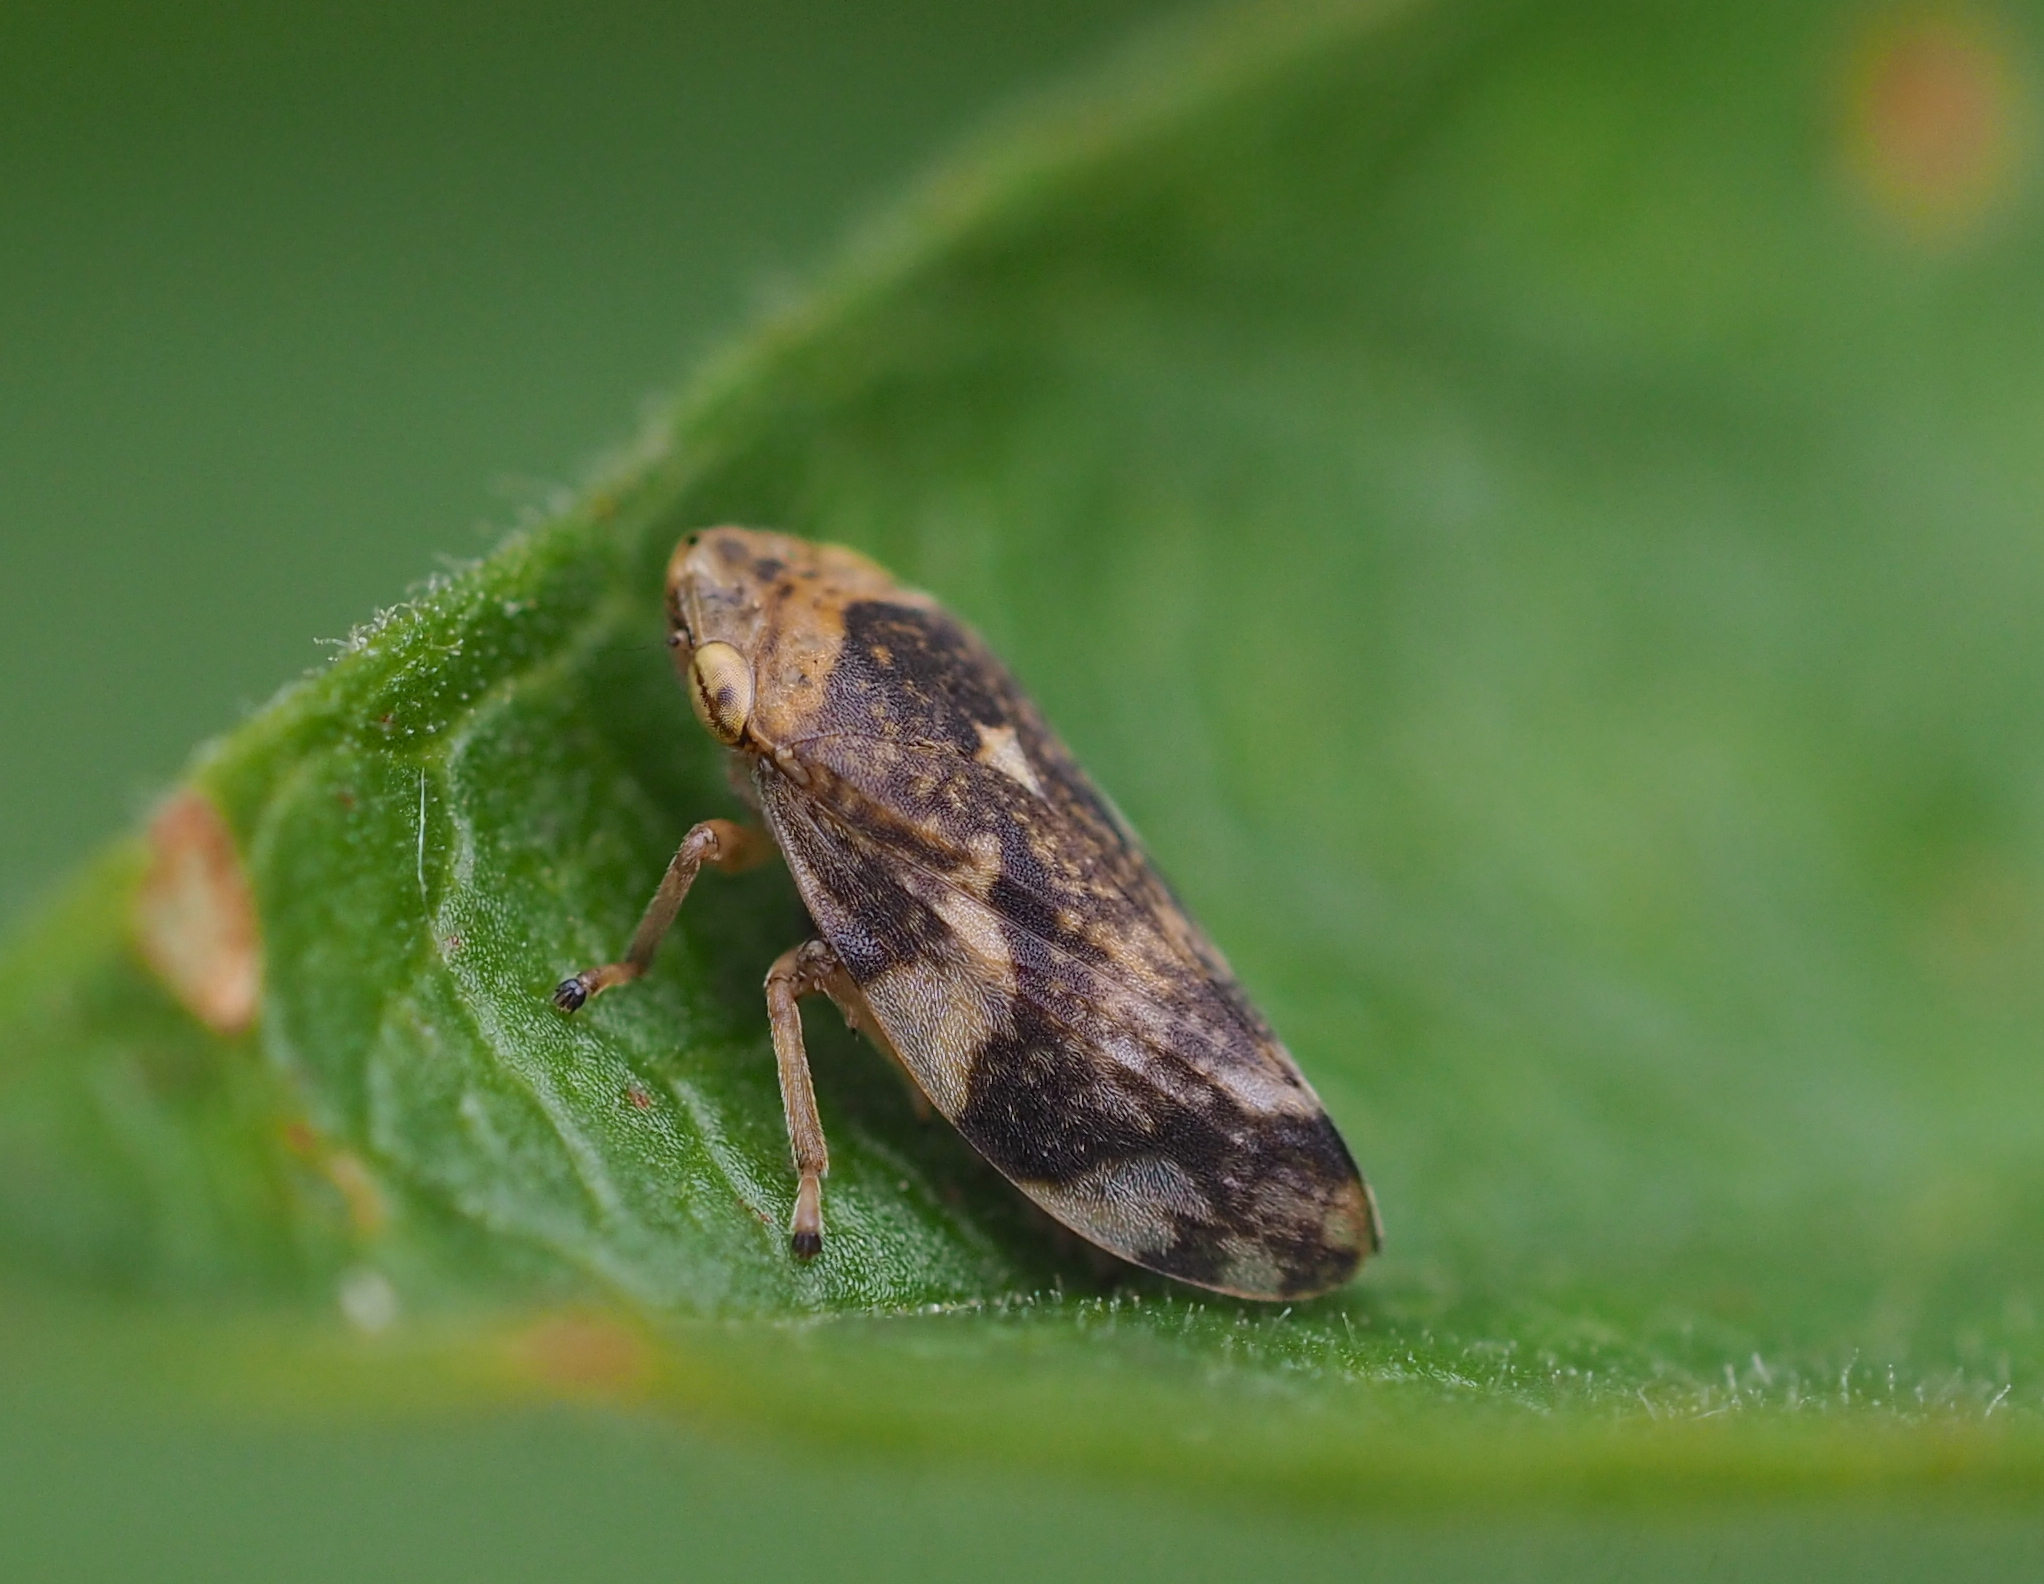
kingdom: Animalia
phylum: Arthropoda
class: Insecta
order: Hemiptera
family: Aphrophoridae
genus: Philaenus
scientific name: Philaenus spumarius
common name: Meadow spittlebug
